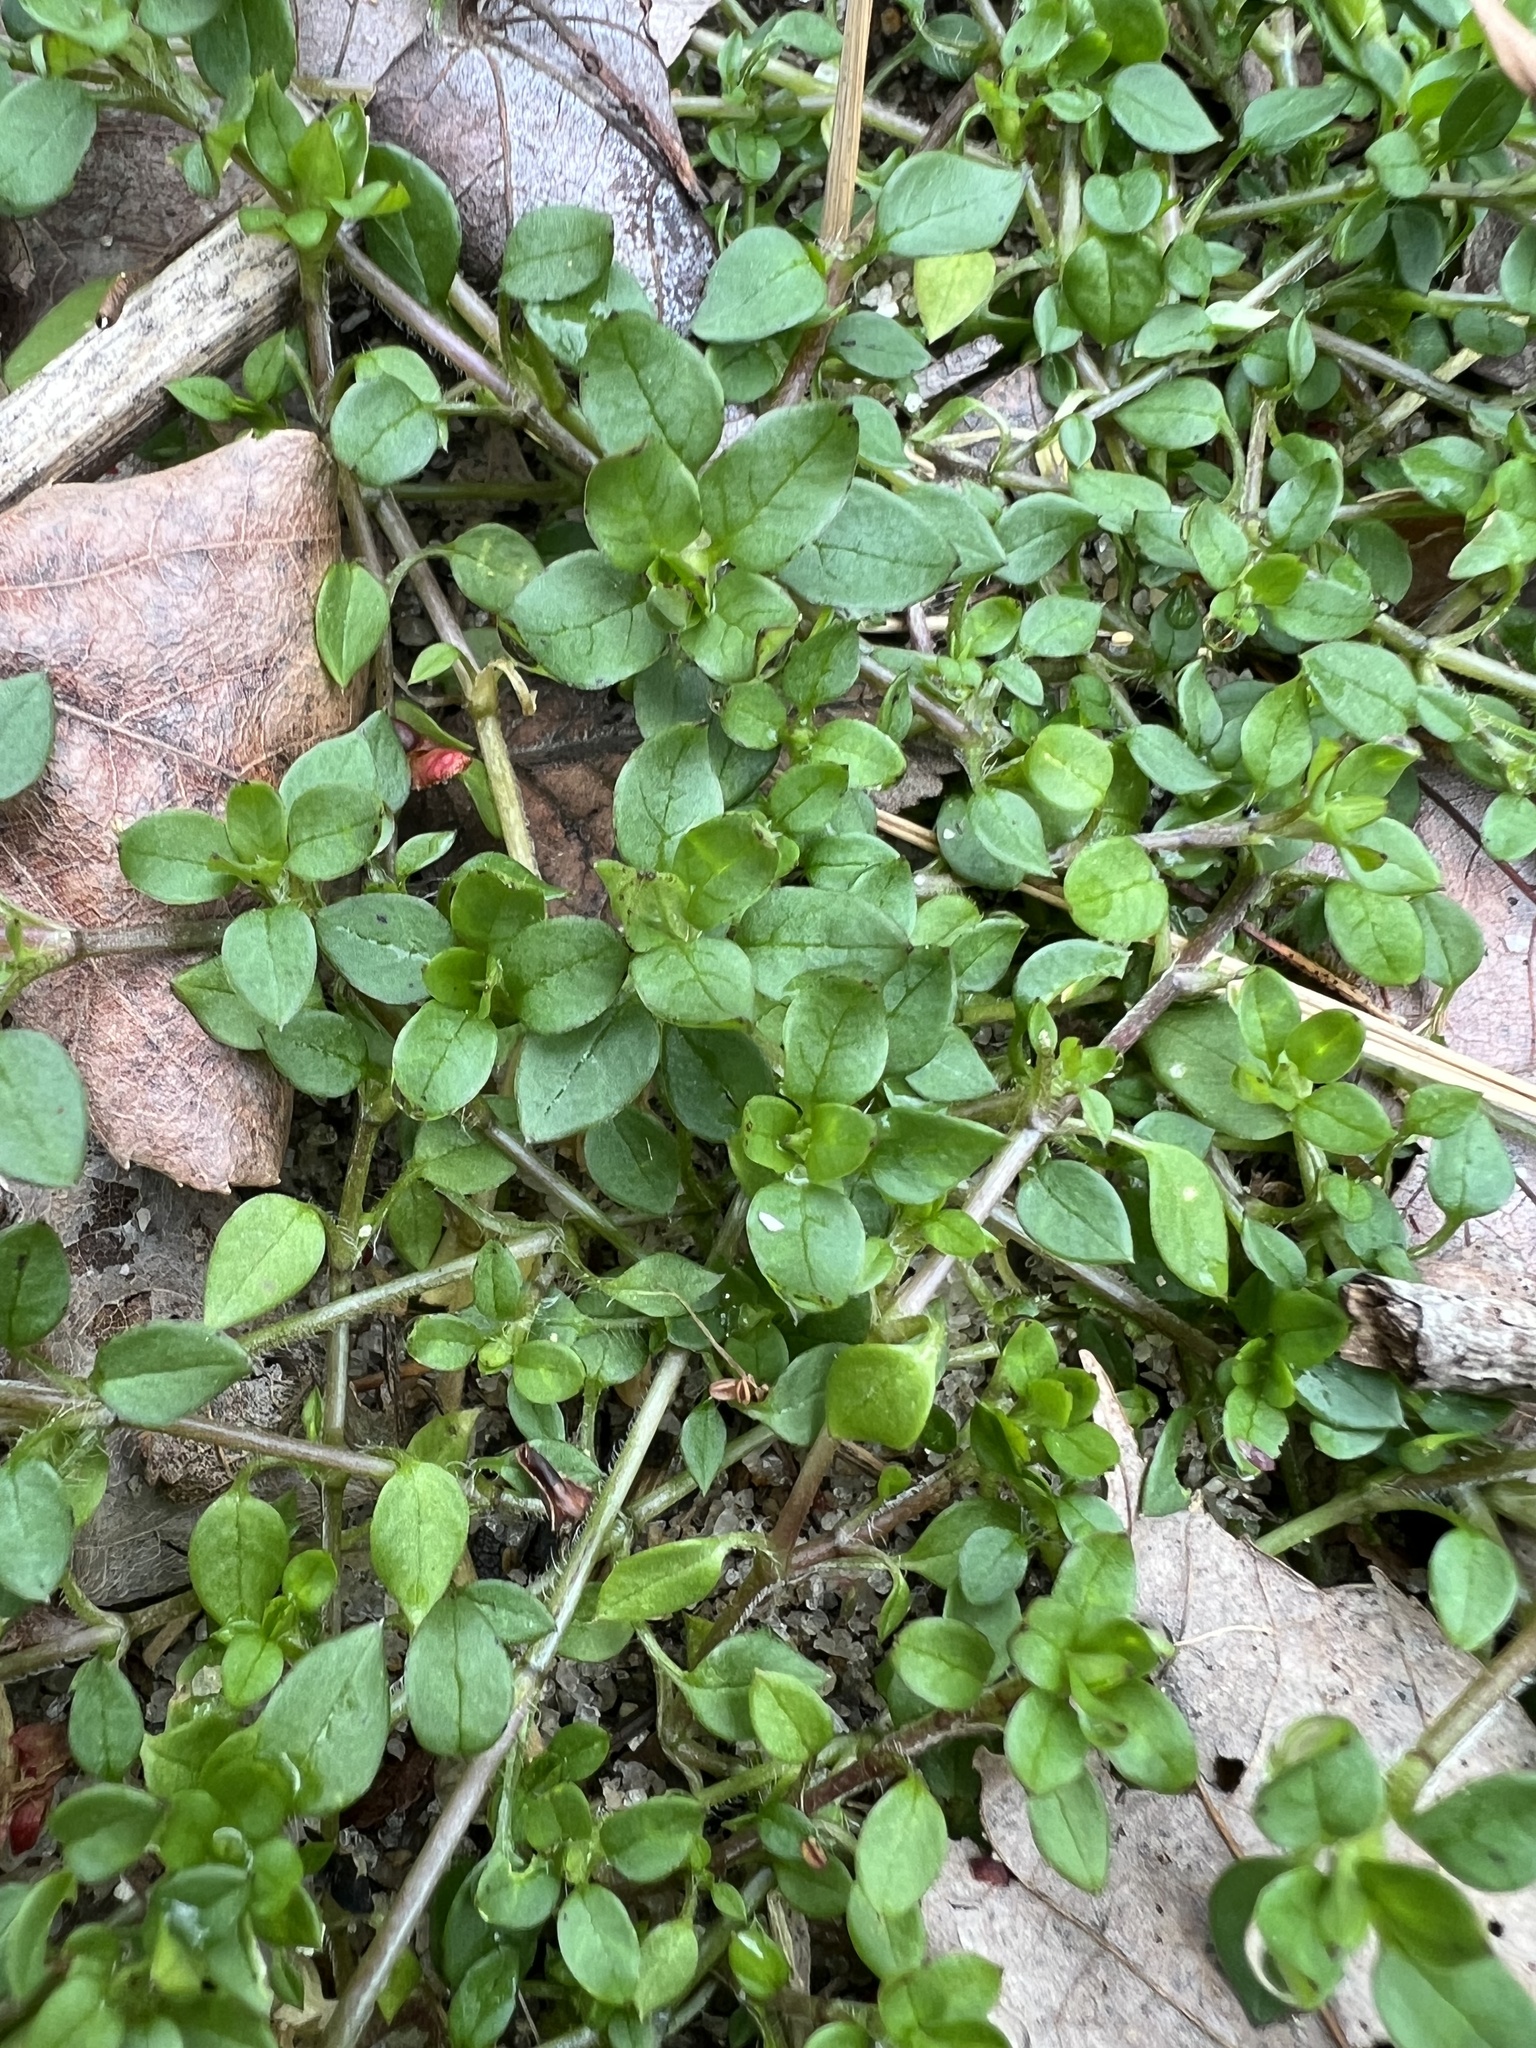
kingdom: Plantae
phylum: Tracheophyta
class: Magnoliopsida
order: Caryophyllales
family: Caryophyllaceae
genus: Stellaria
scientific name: Stellaria media
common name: Common chickweed
